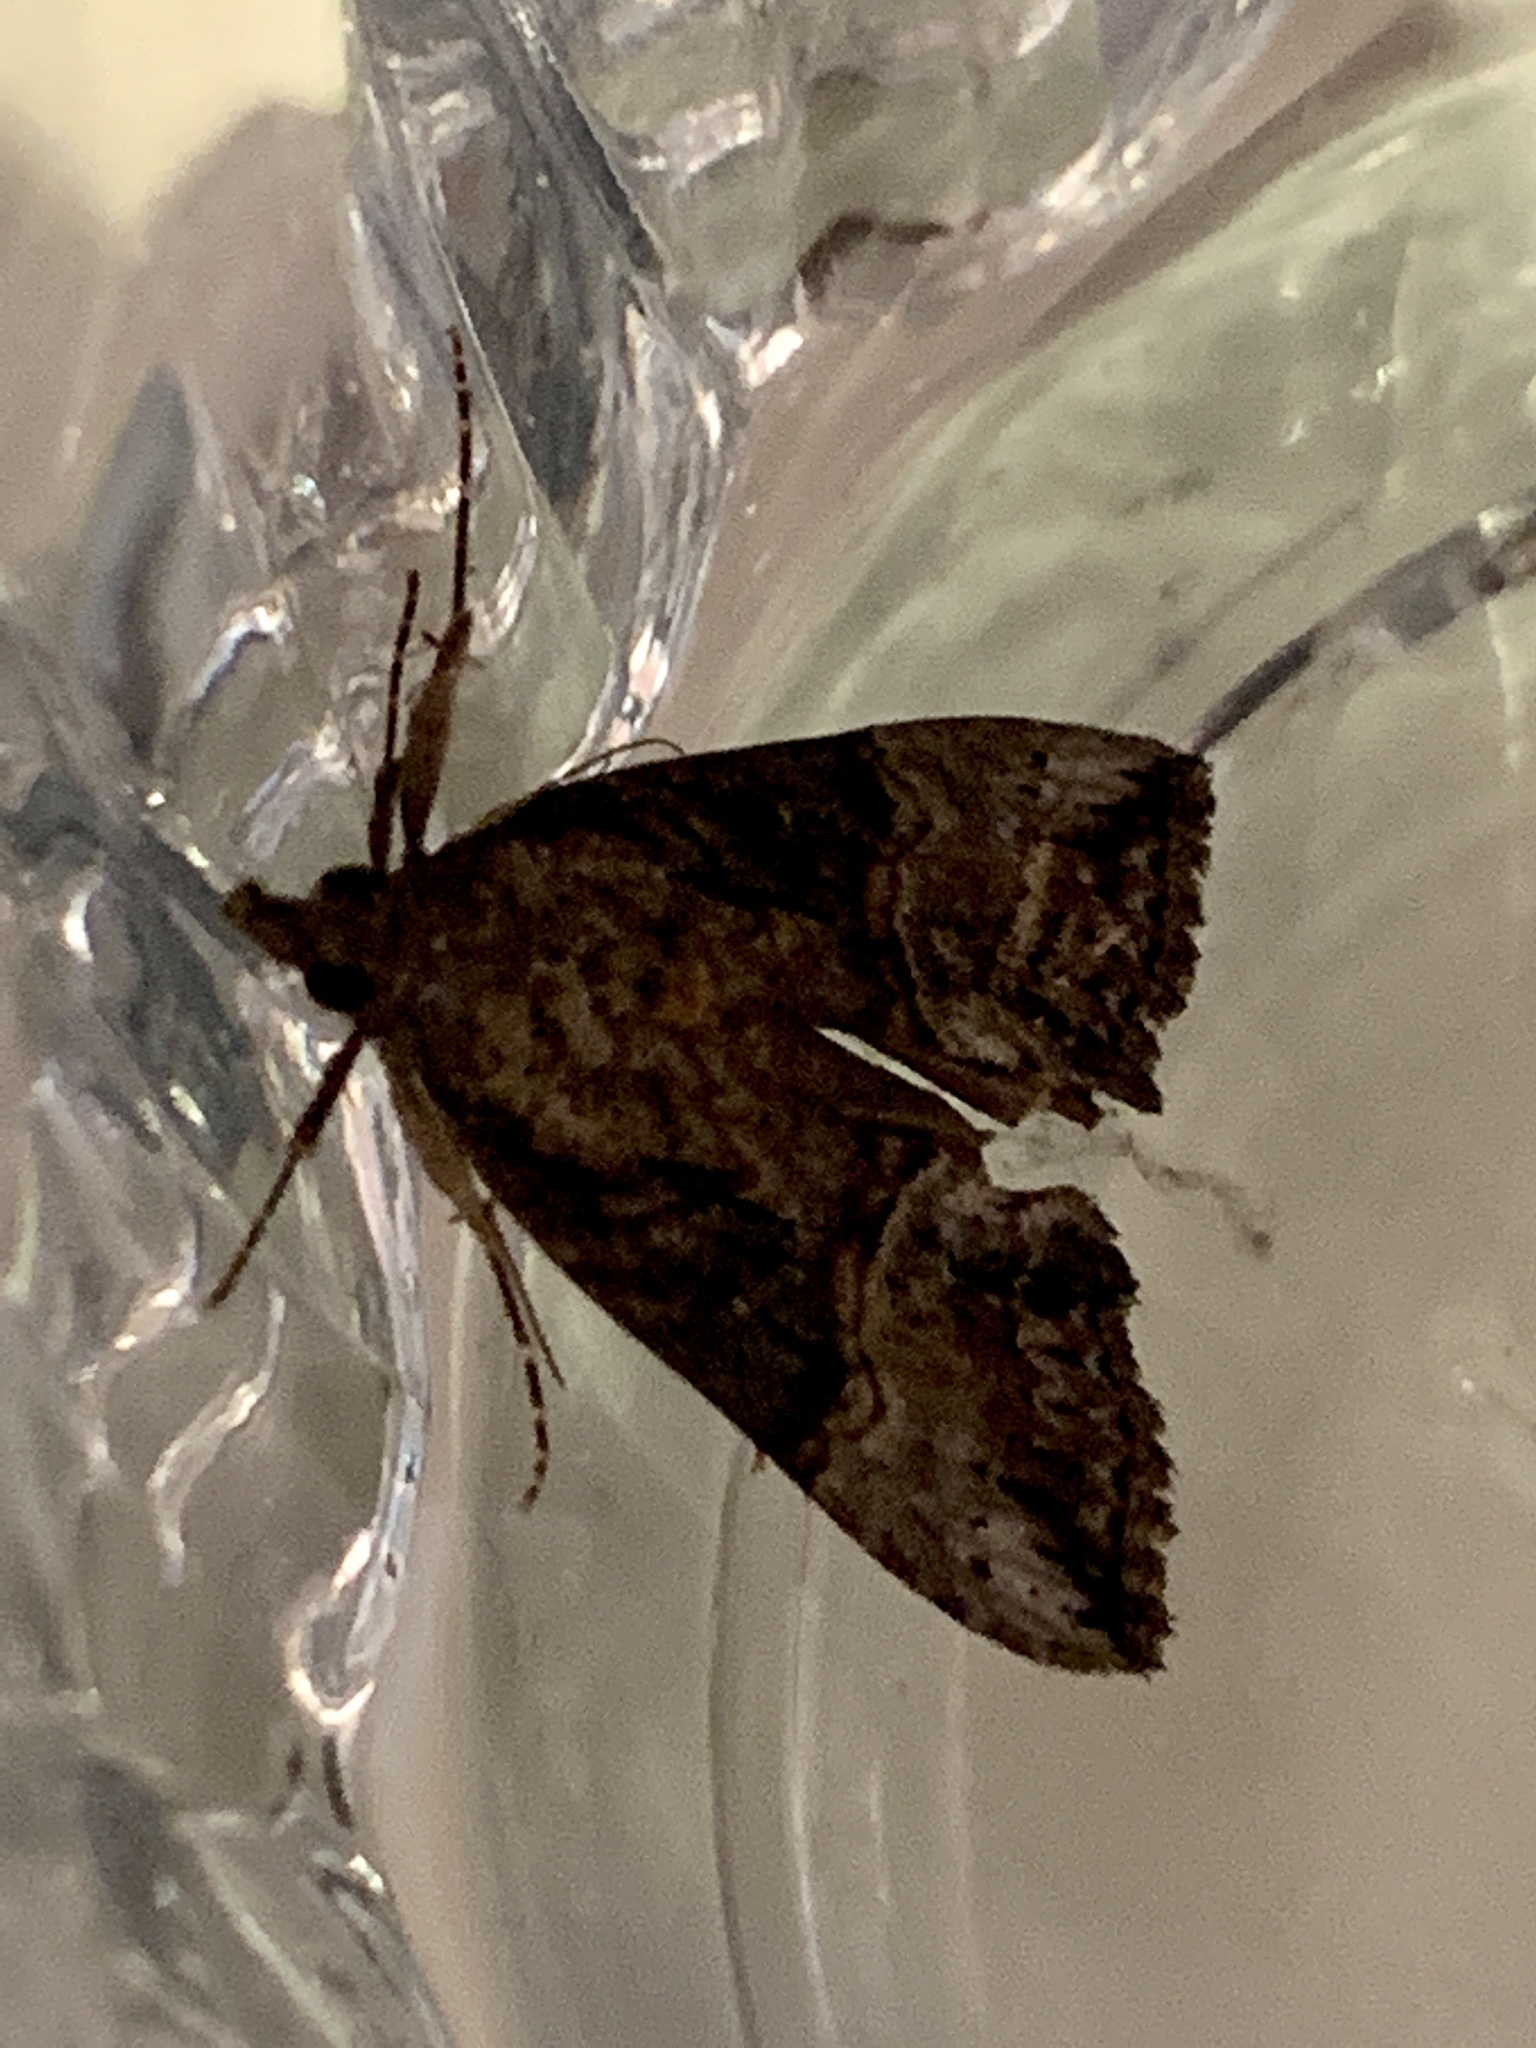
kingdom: Animalia
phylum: Arthropoda
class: Insecta
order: Lepidoptera
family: Erebidae
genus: Hypena
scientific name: Hypena scabra
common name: Green cloverworm
